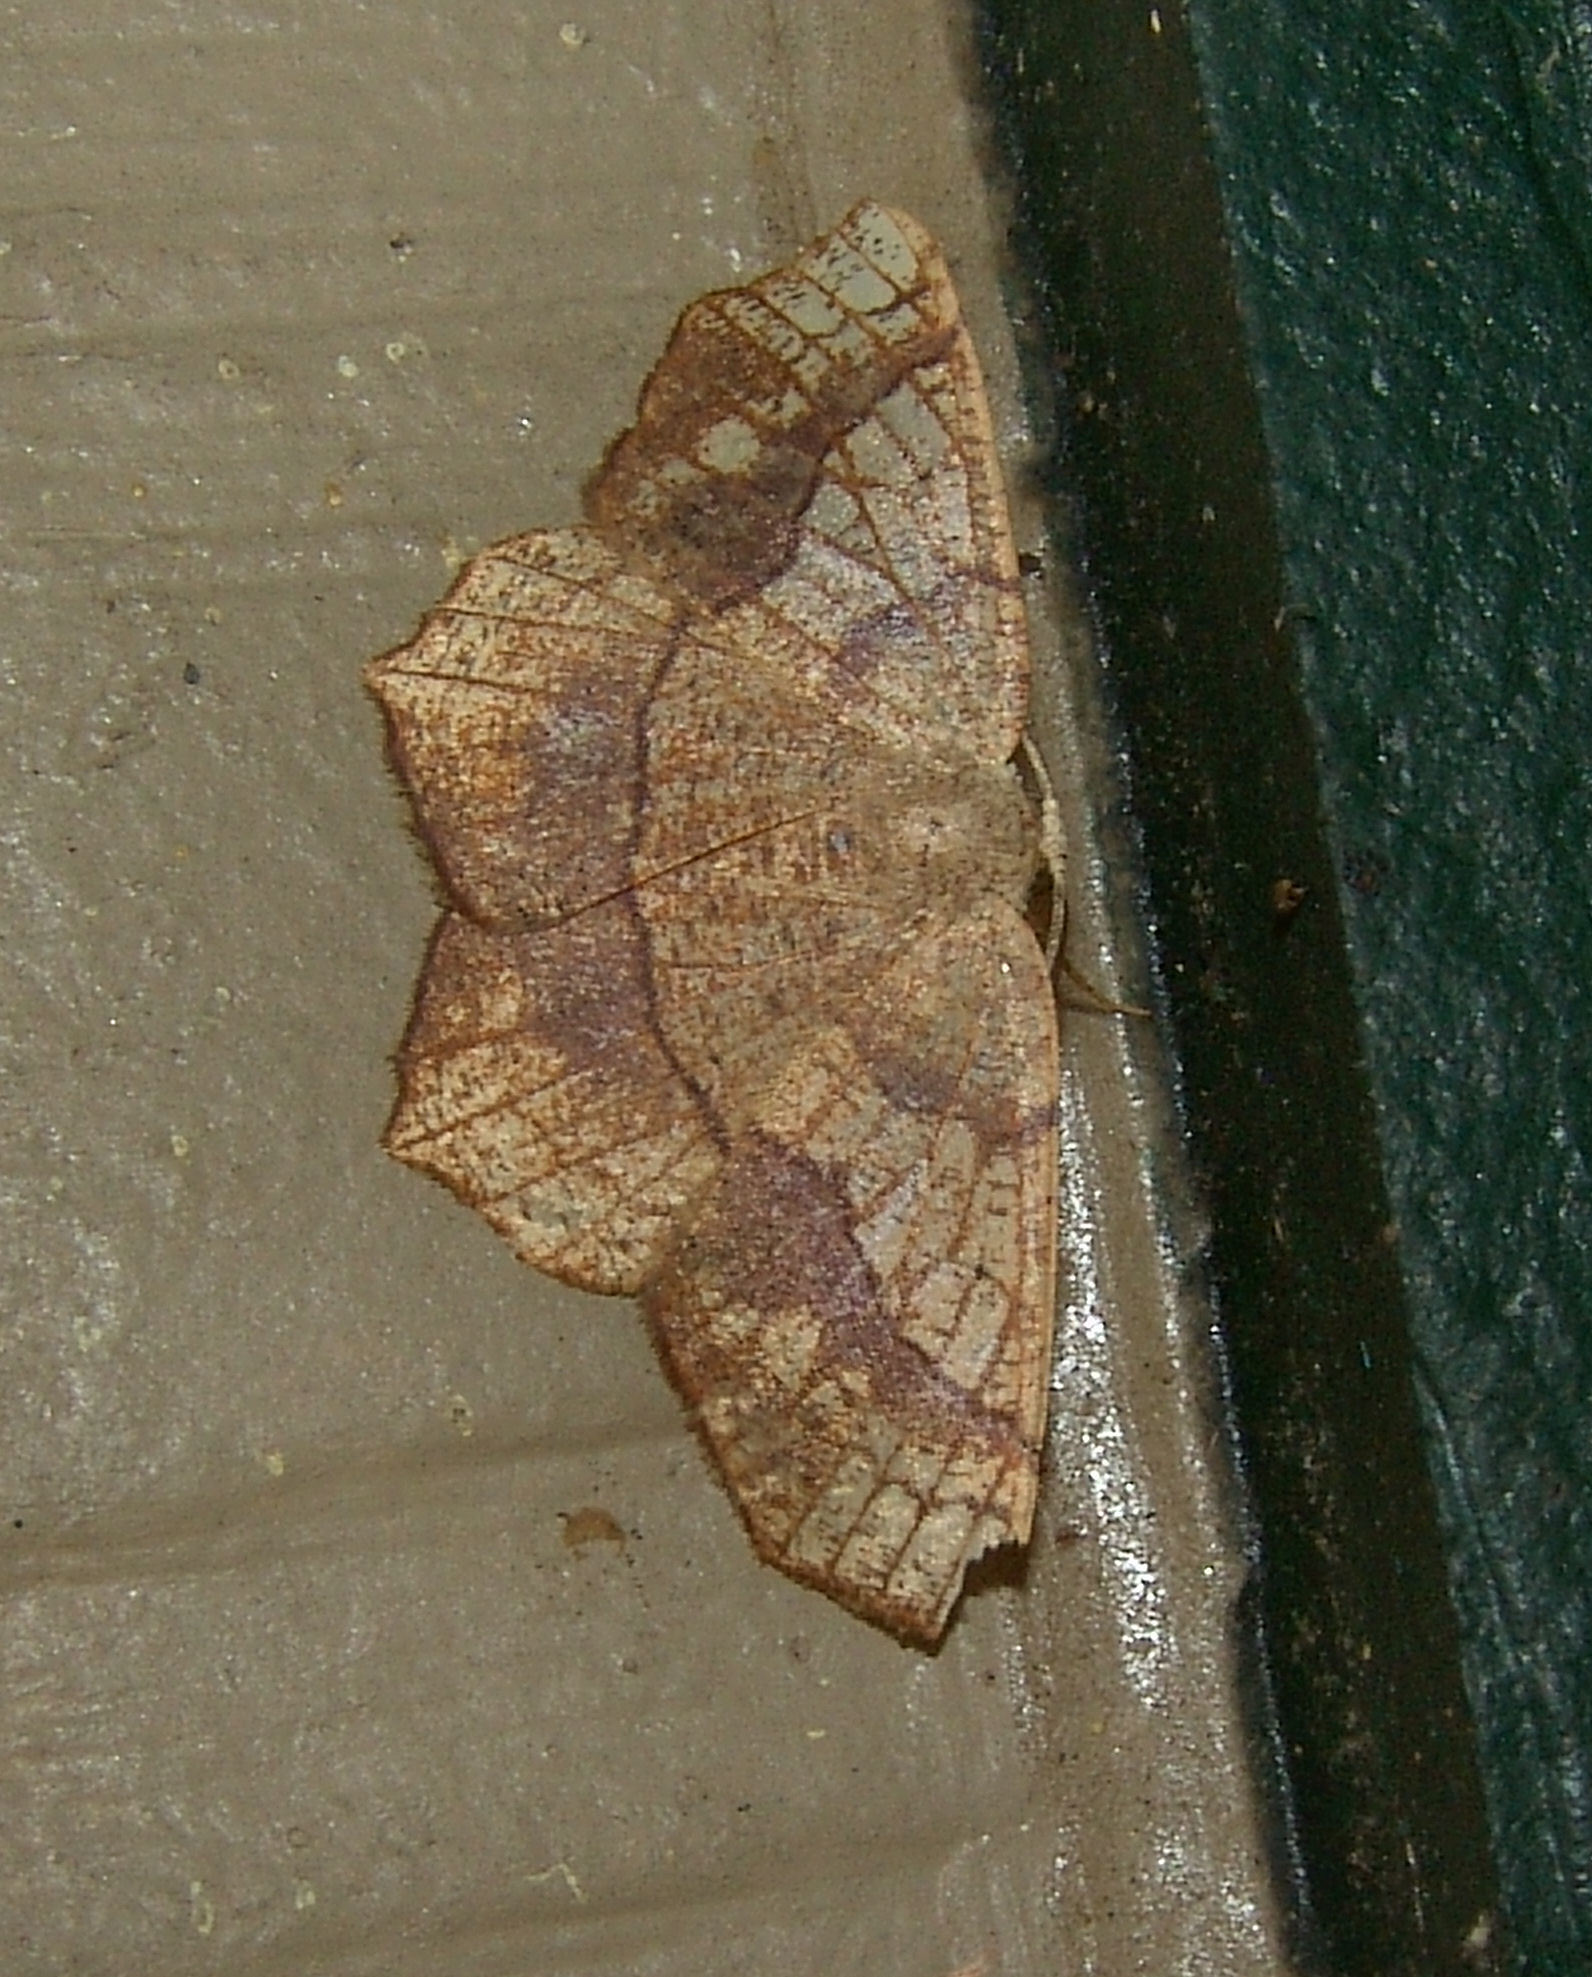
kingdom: Animalia
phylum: Arthropoda
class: Insecta
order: Lepidoptera
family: Geometridae
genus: Besma
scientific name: Besma quercivoraria
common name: Oak besma
